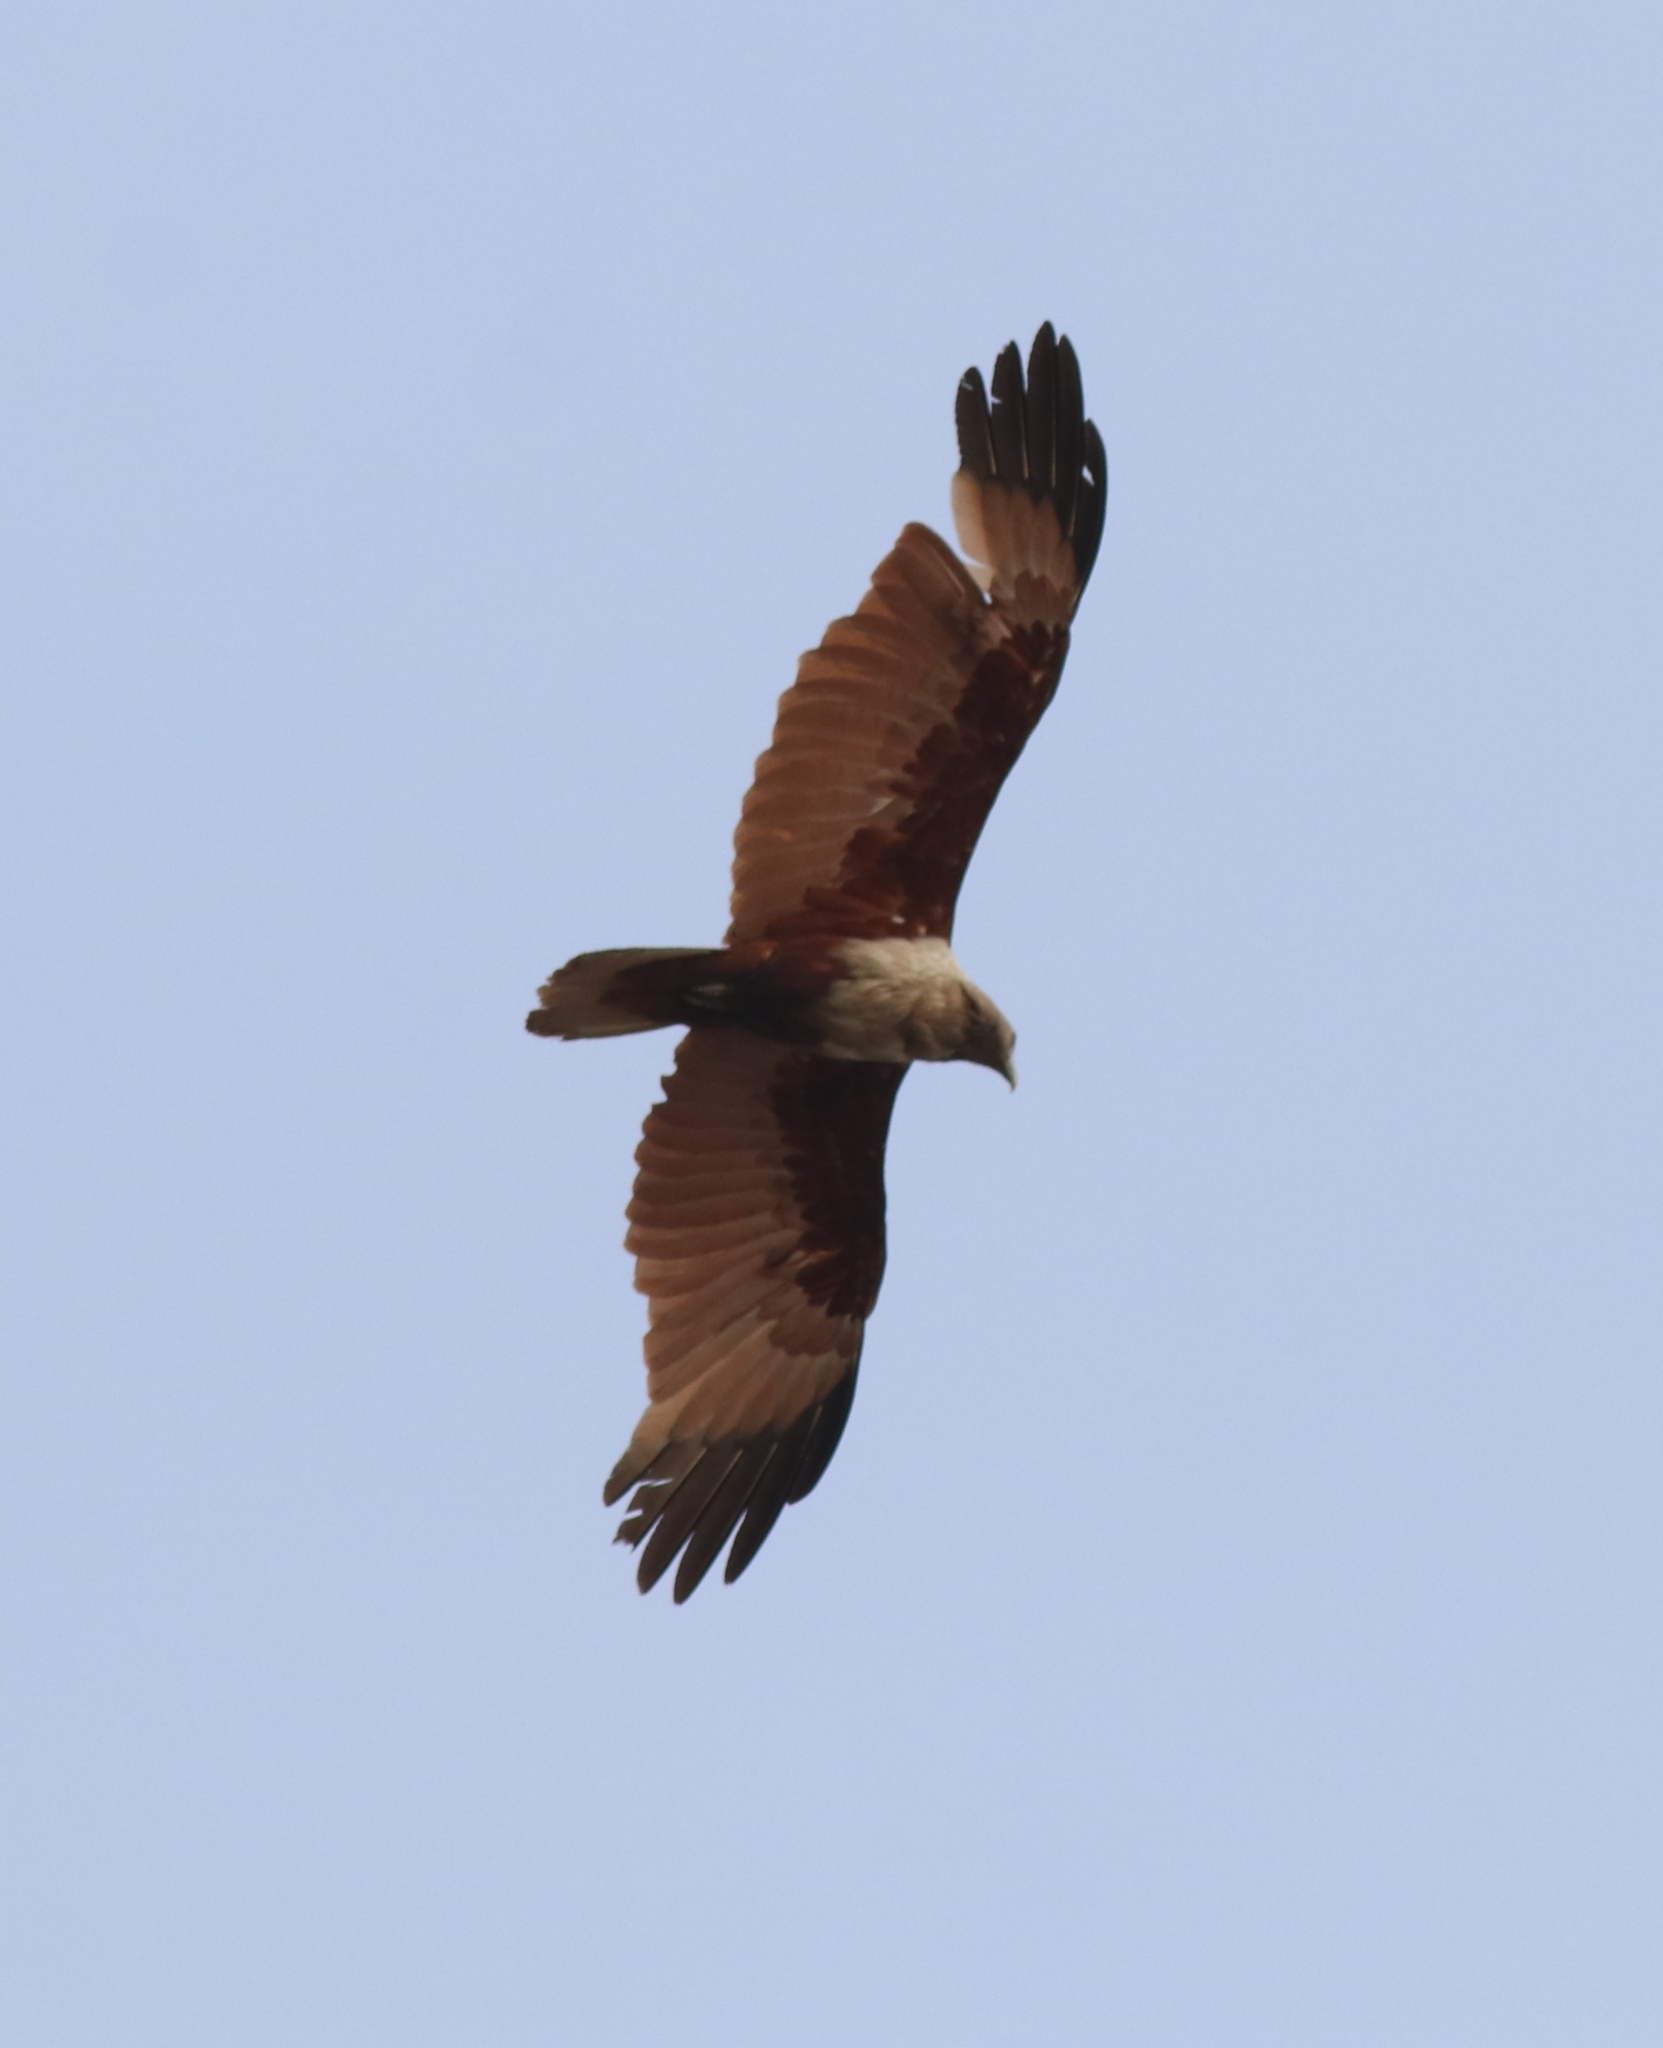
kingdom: Animalia
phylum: Chordata
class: Aves
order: Accipitriformes
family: Accipitridae
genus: Haliastur
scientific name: Haliastur indus
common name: Brahminy kite
